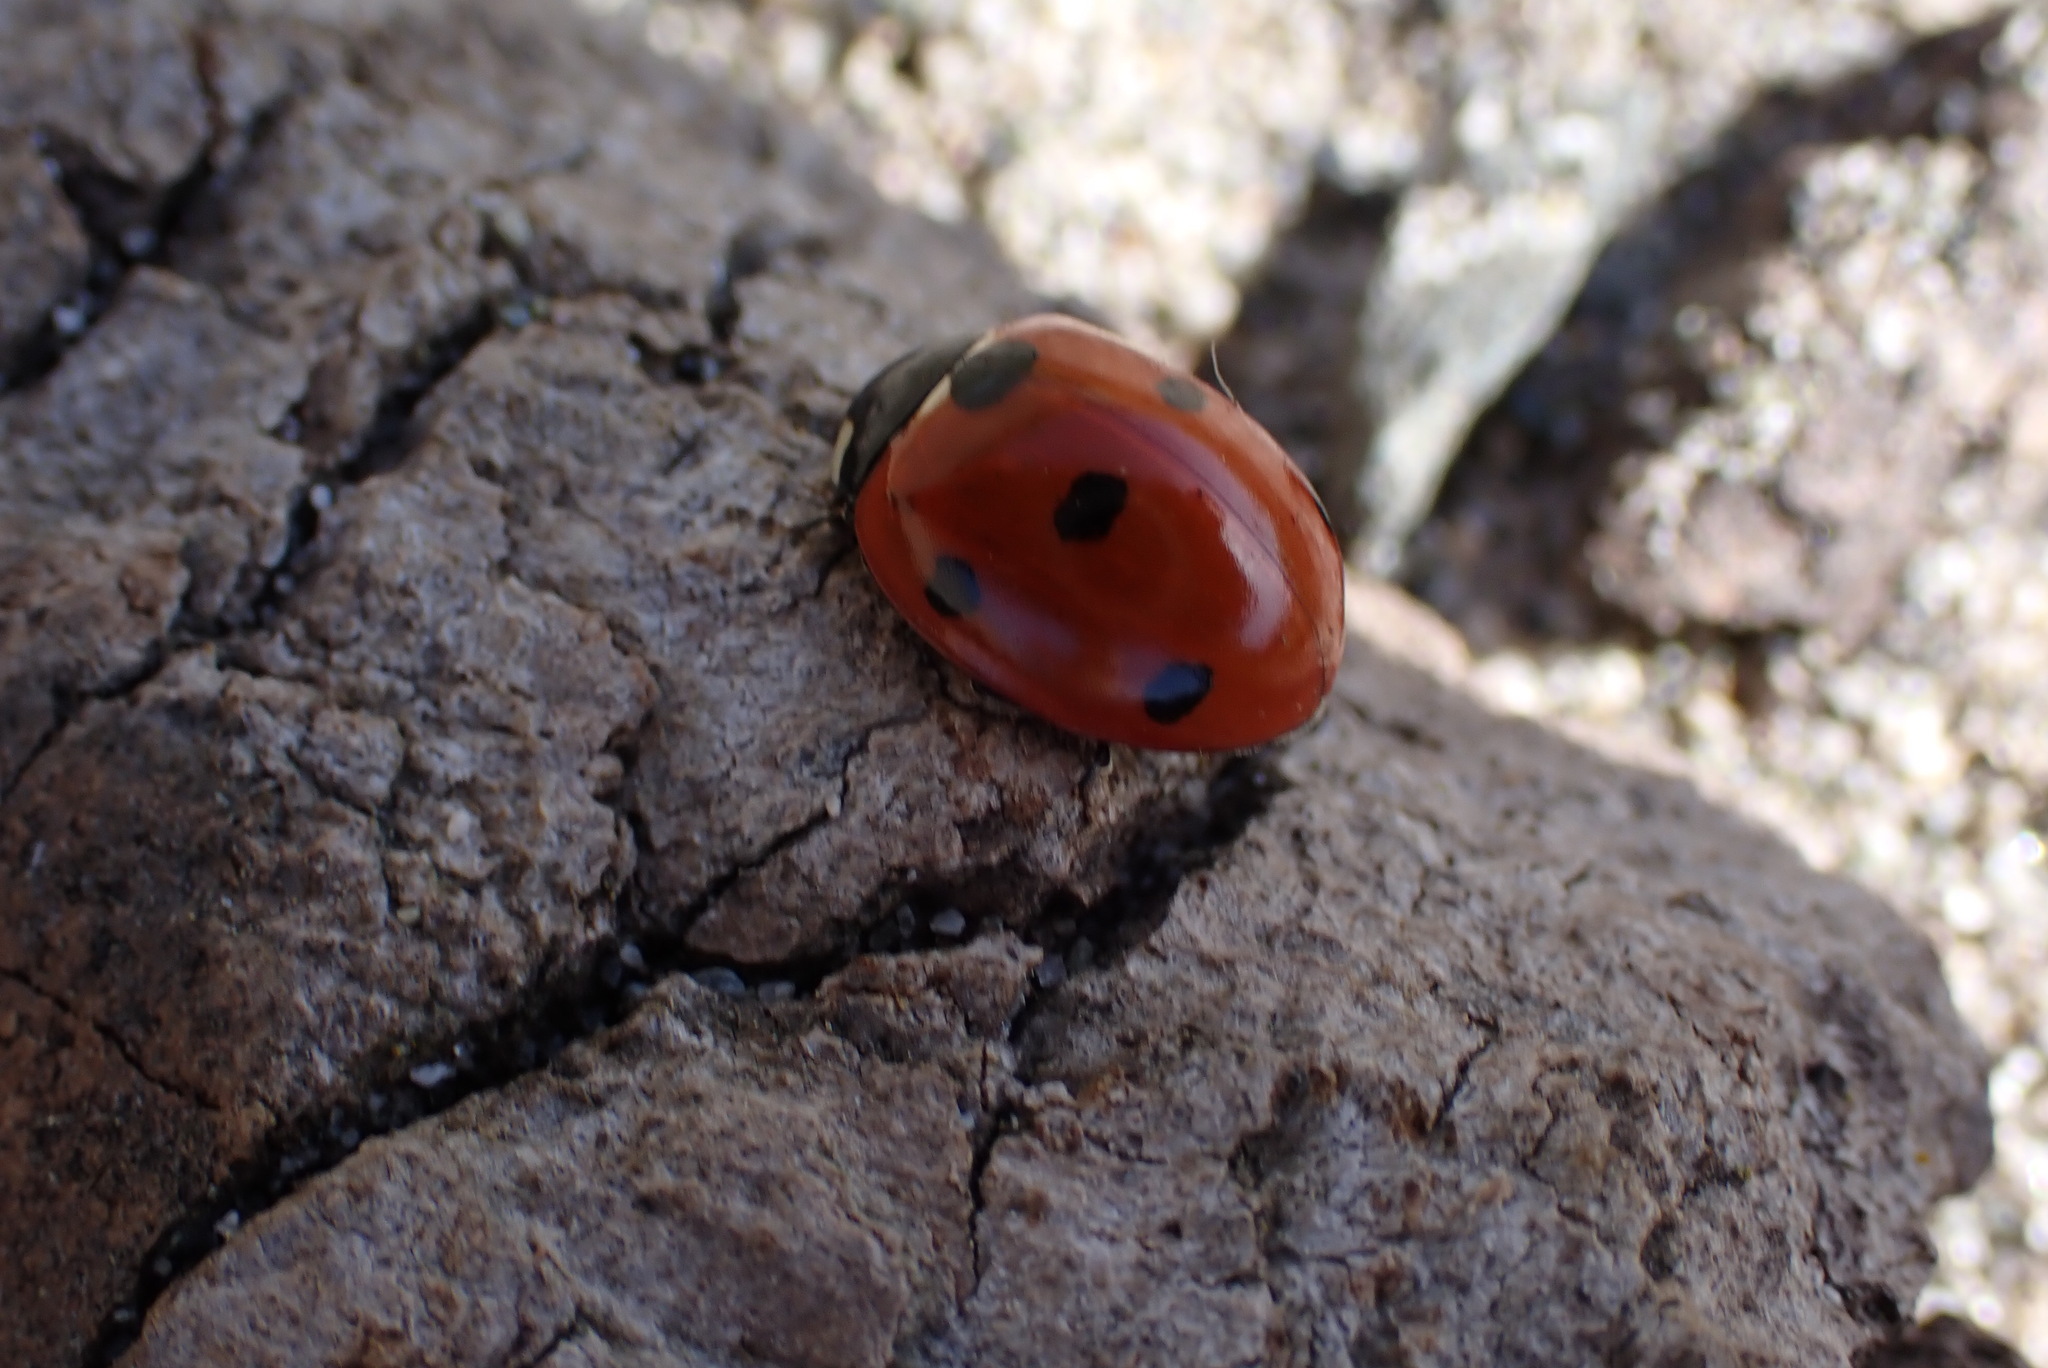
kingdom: Animalia
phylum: Arthropoda
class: Insecta
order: Coleoptera
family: Coccinellidae
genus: Coccinella
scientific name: Coccinella septempunctata
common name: Sevenspotted lady beetle
